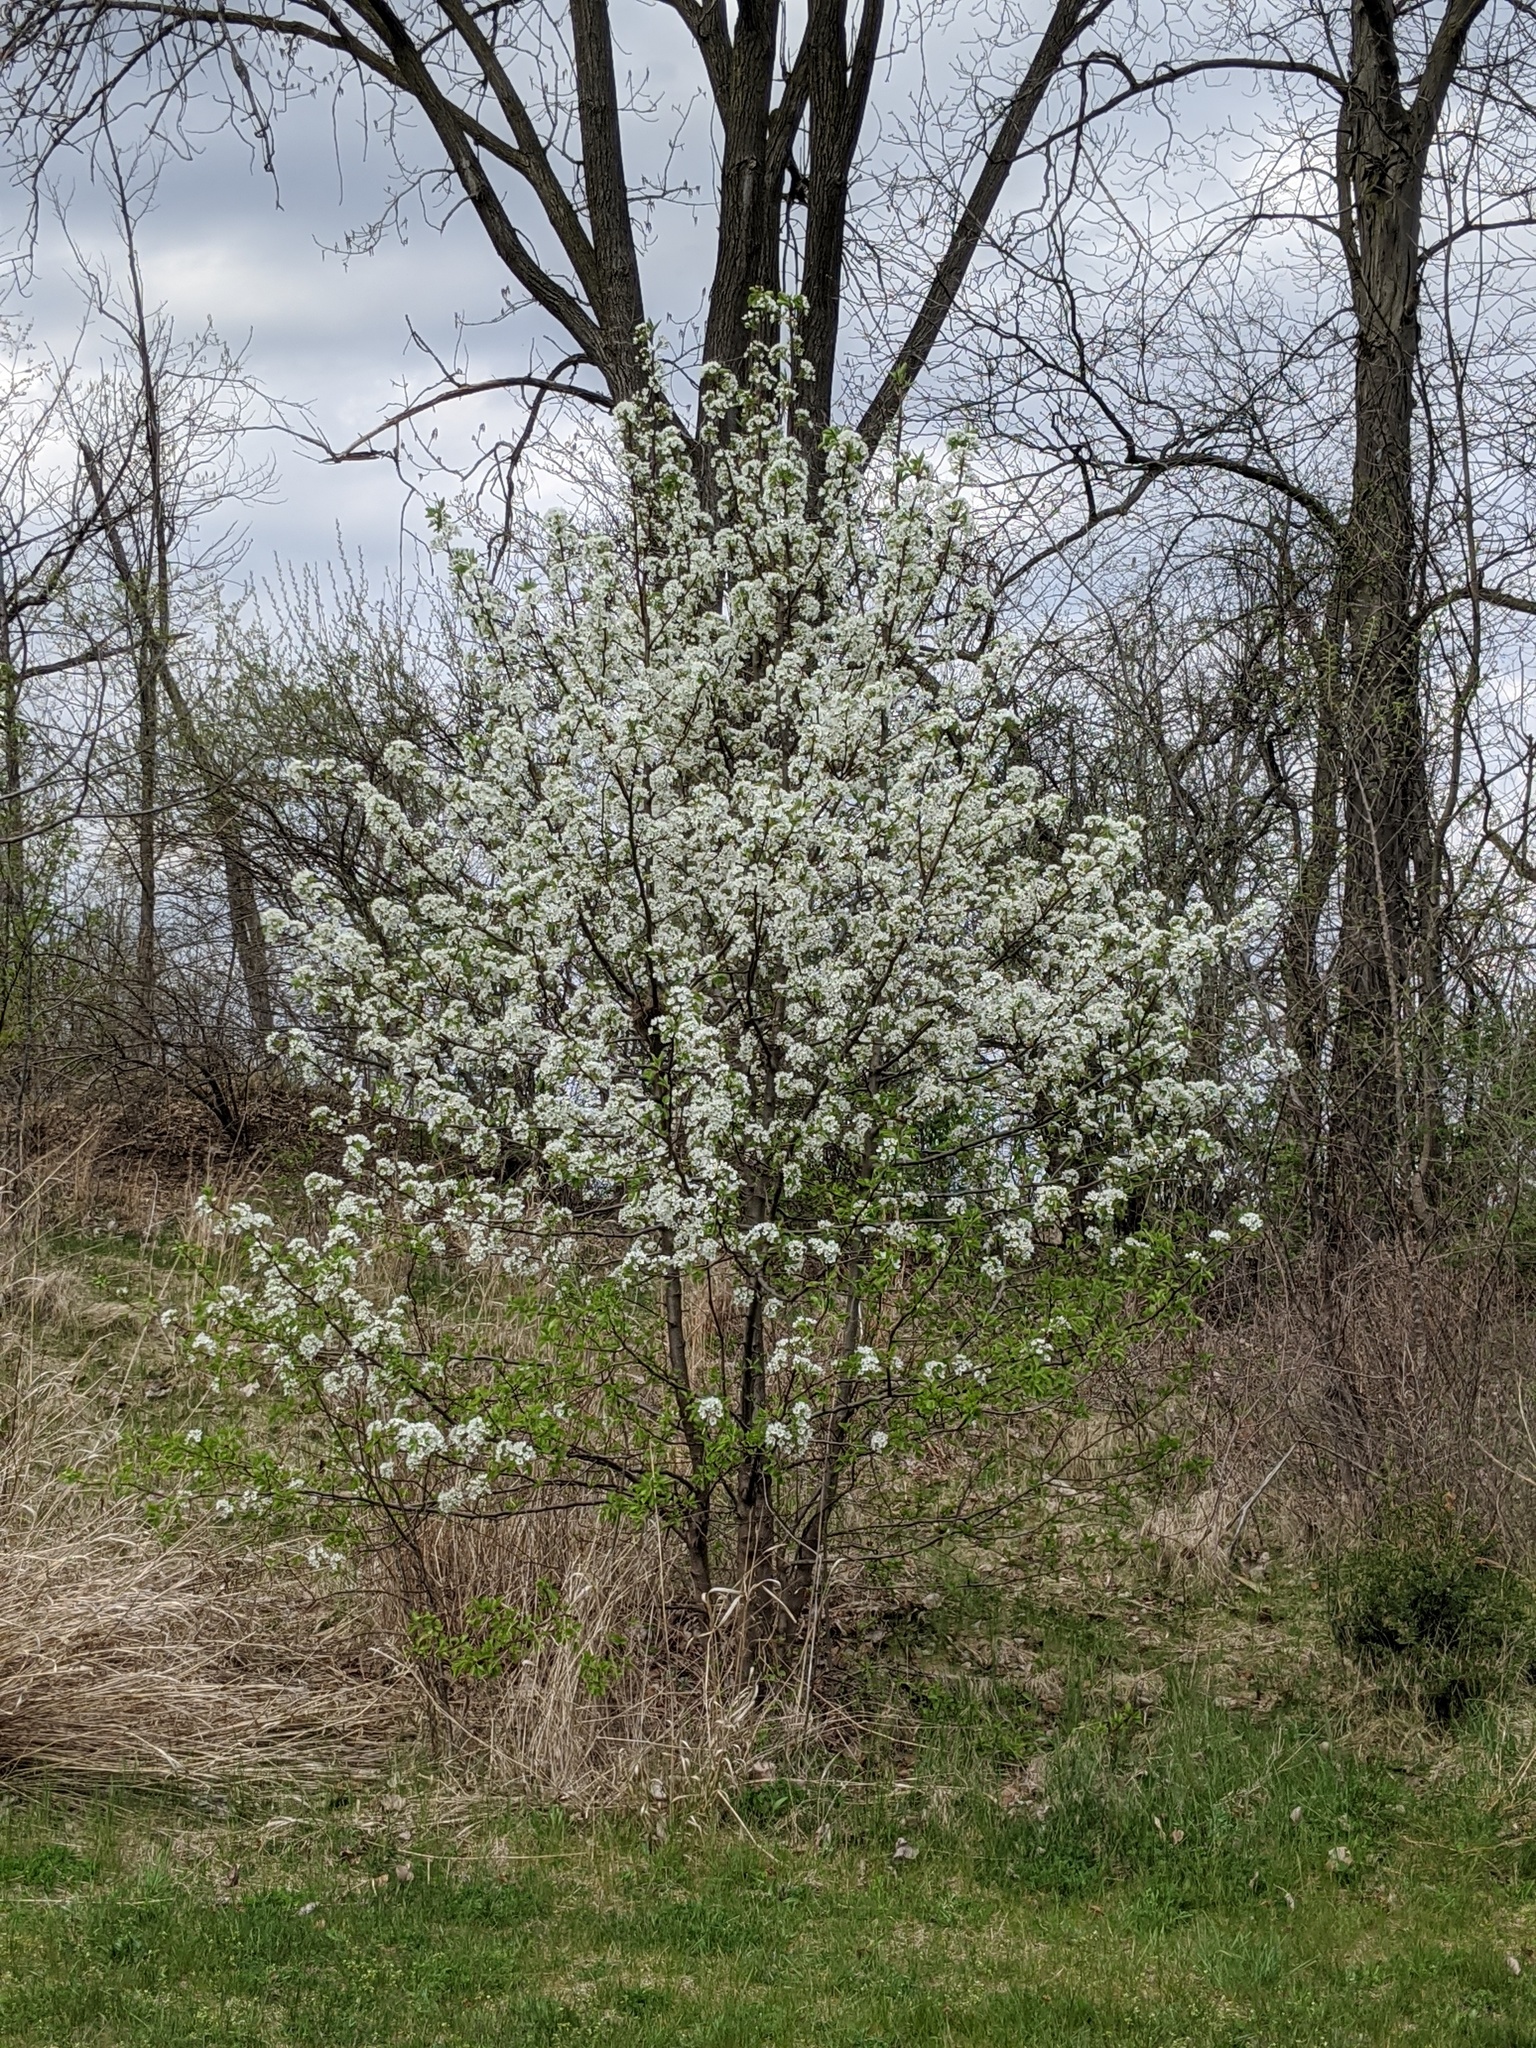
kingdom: Plantae
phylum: Tracheophyta
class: Magnoliopsida
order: Rosales
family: Rosaceae
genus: Pyrus
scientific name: Pyrus calleryana
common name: Callery pear
